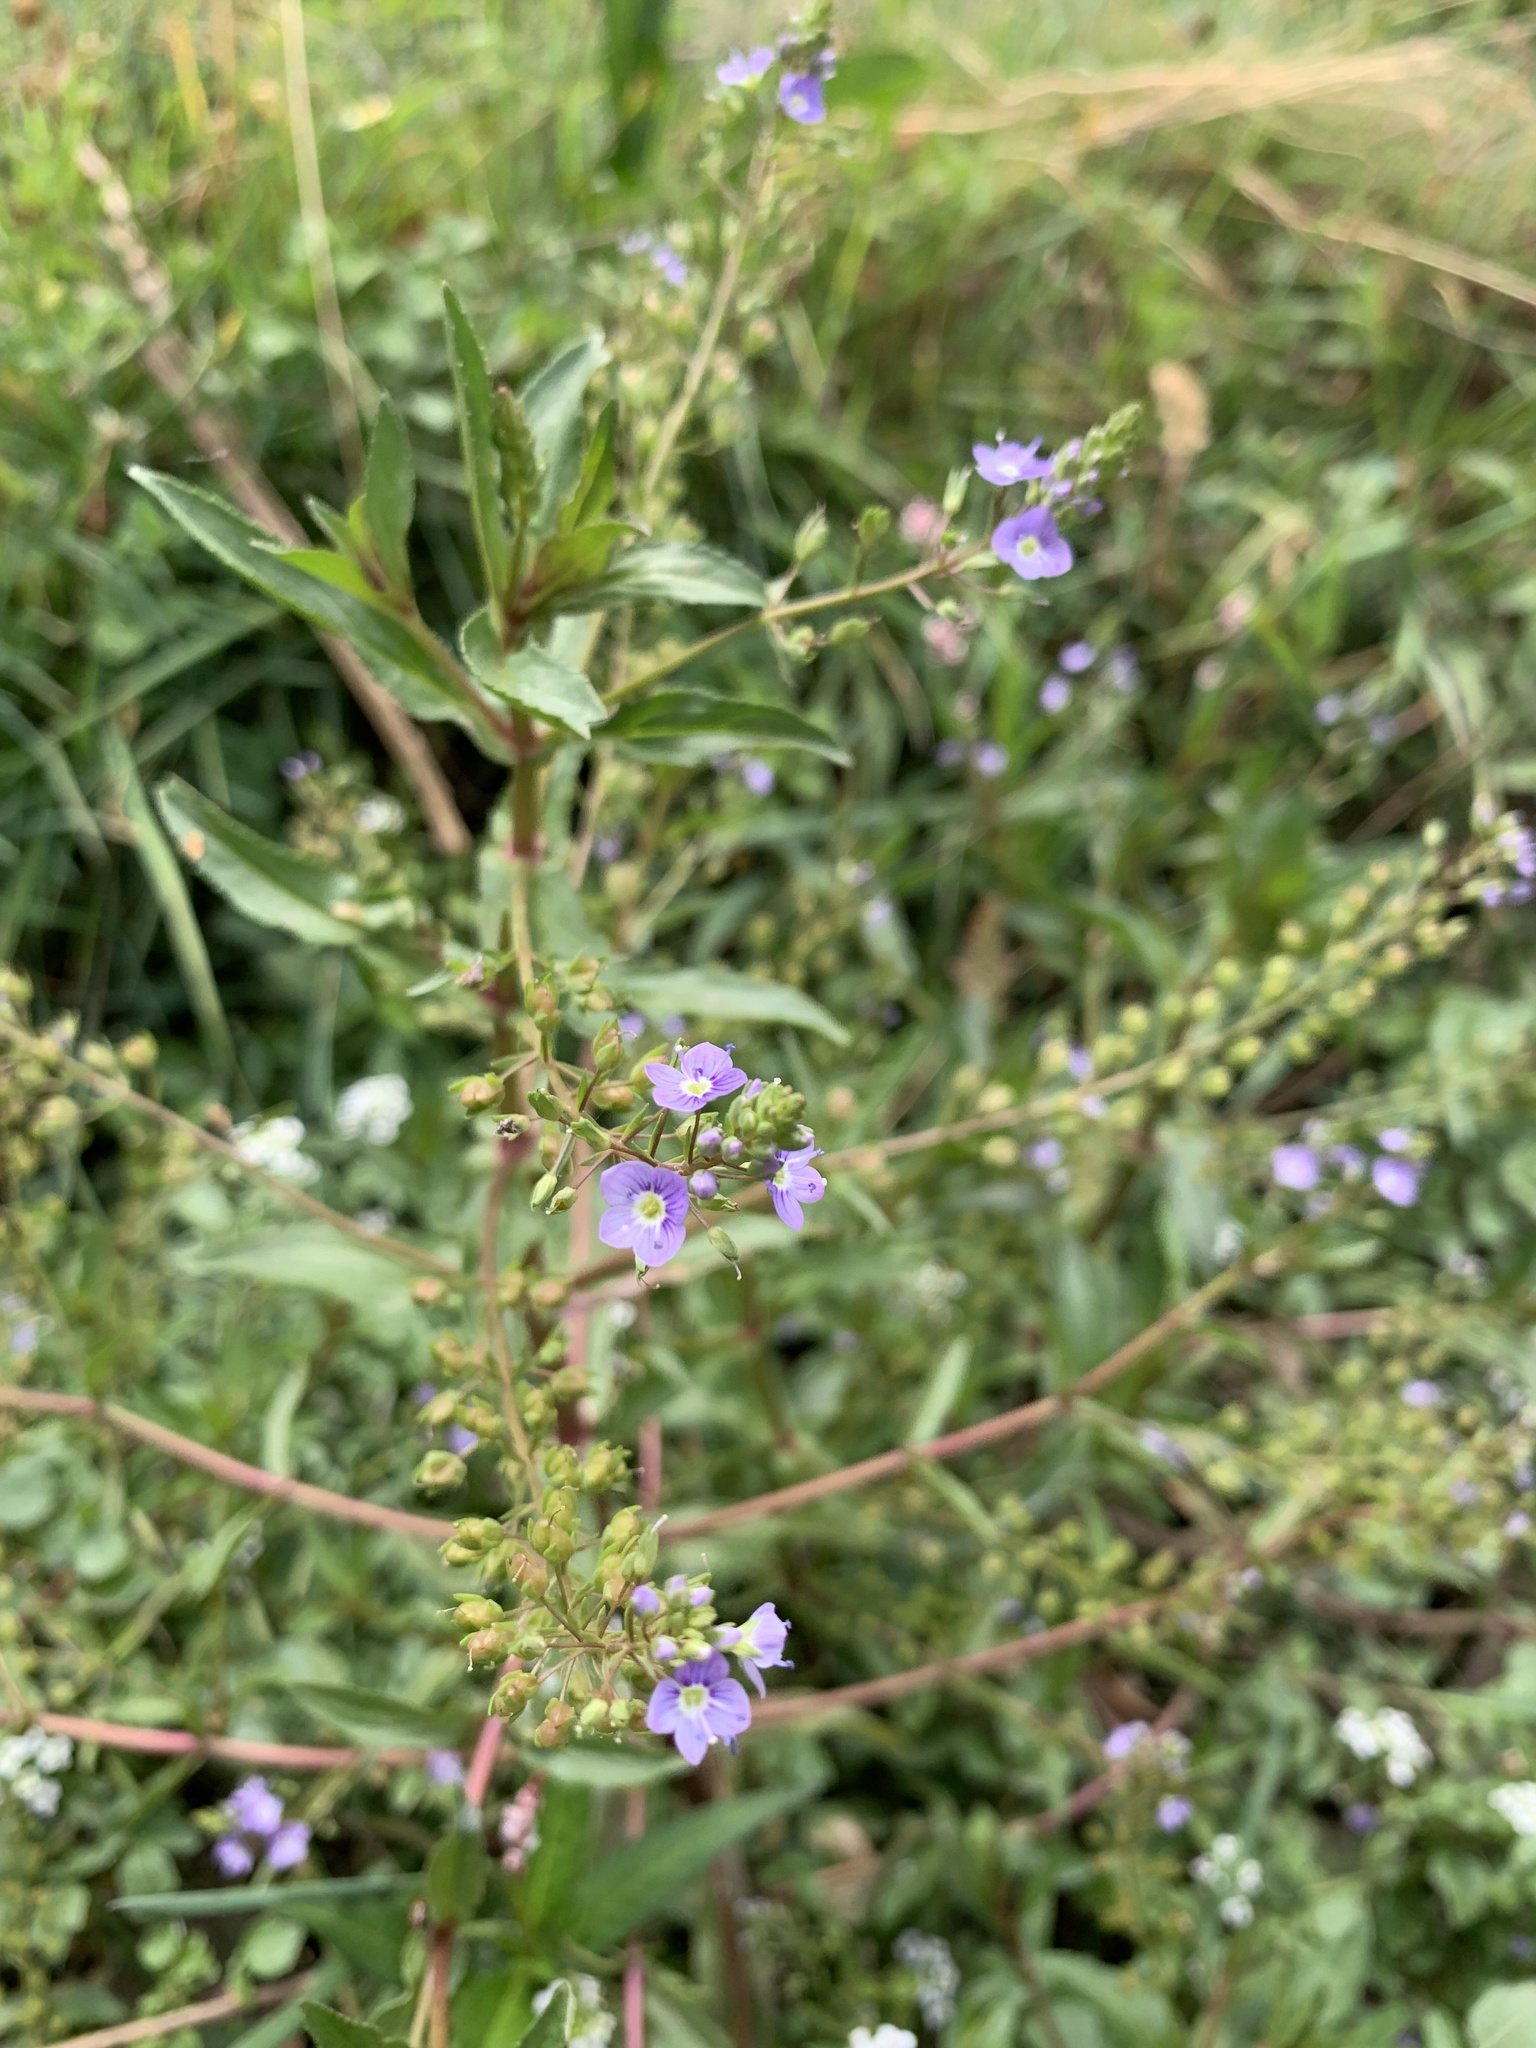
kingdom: Plantae
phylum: Tracheophyta
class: Magnoliopsida
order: Lamiales
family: Plantaginaceae
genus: Veronica
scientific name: Veronica anagallis-aquatica
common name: Water speedwell
